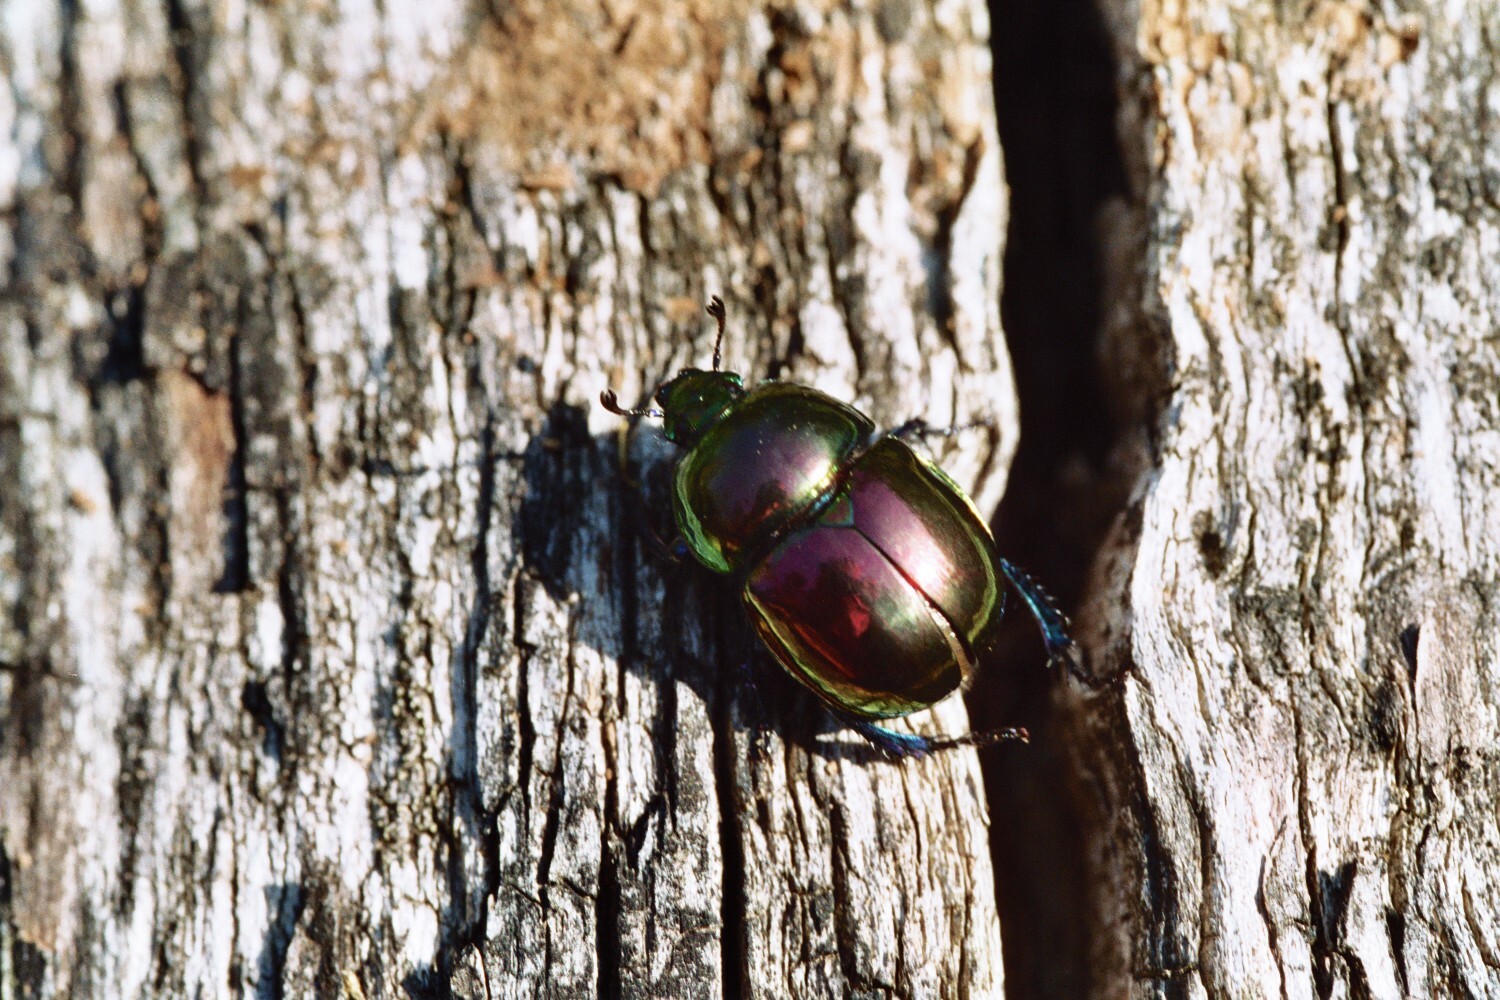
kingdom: Animalia
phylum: Arthropoda
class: Insecta
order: Coleoptera
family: Geotrupidae
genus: Trypocopris
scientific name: Trypocopris pyrenaeus
